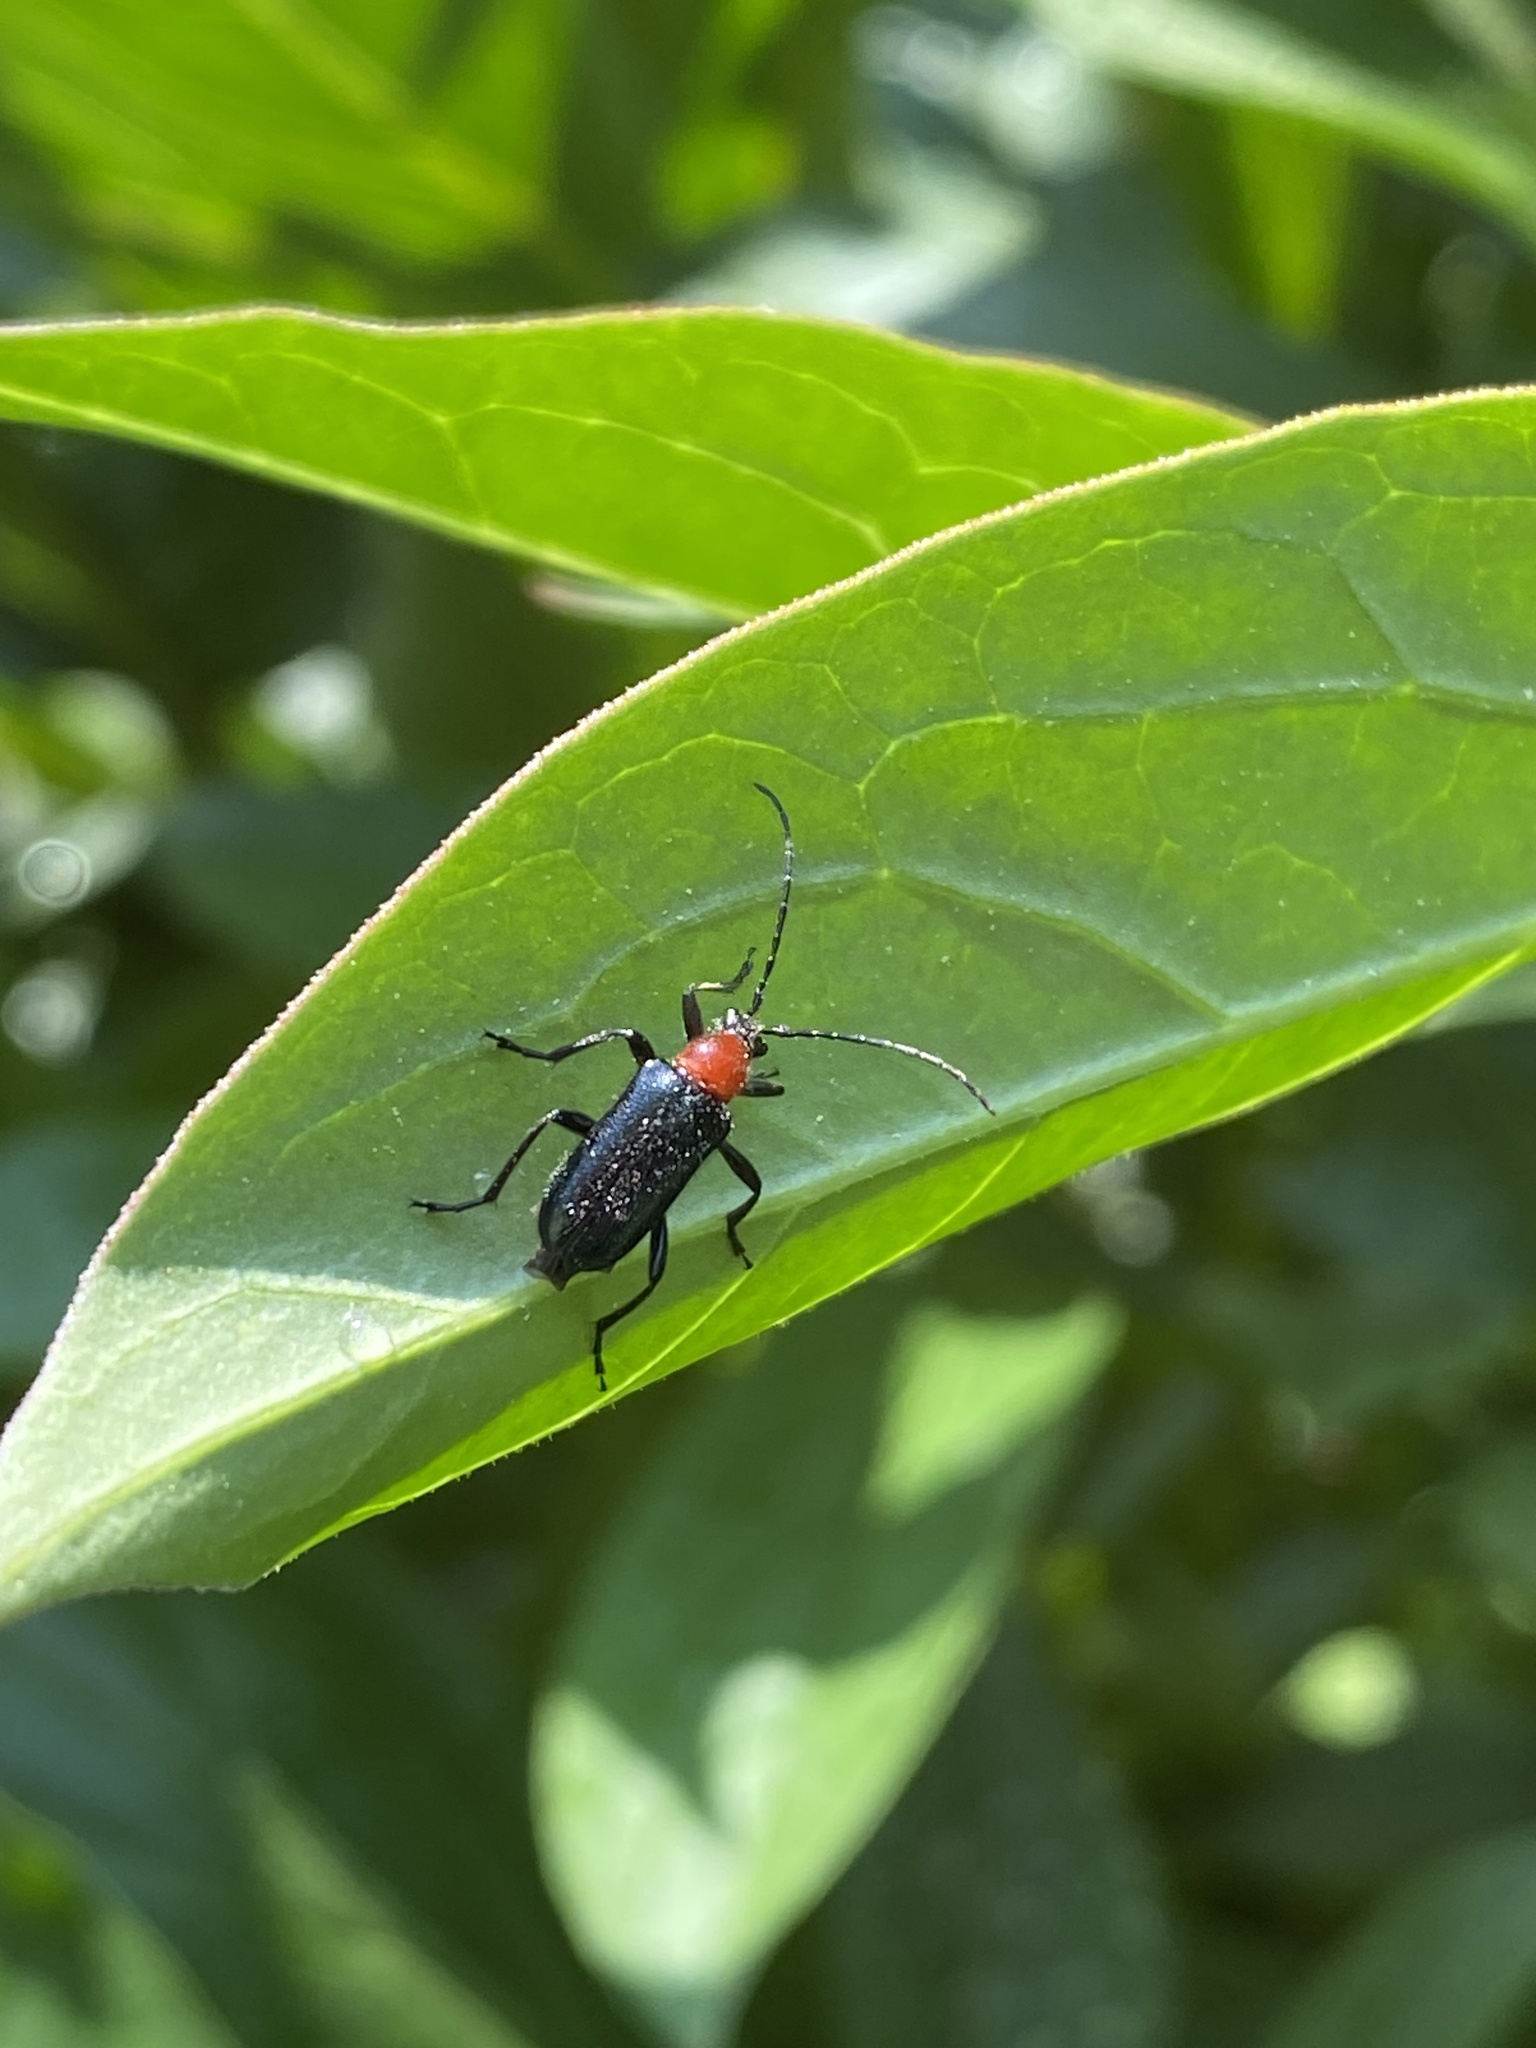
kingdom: Animalia
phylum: Arthropoda
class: Insecta
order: Coleoptera
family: Cerambycidae
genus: Dinoptera
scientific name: Dinoptera collaris
